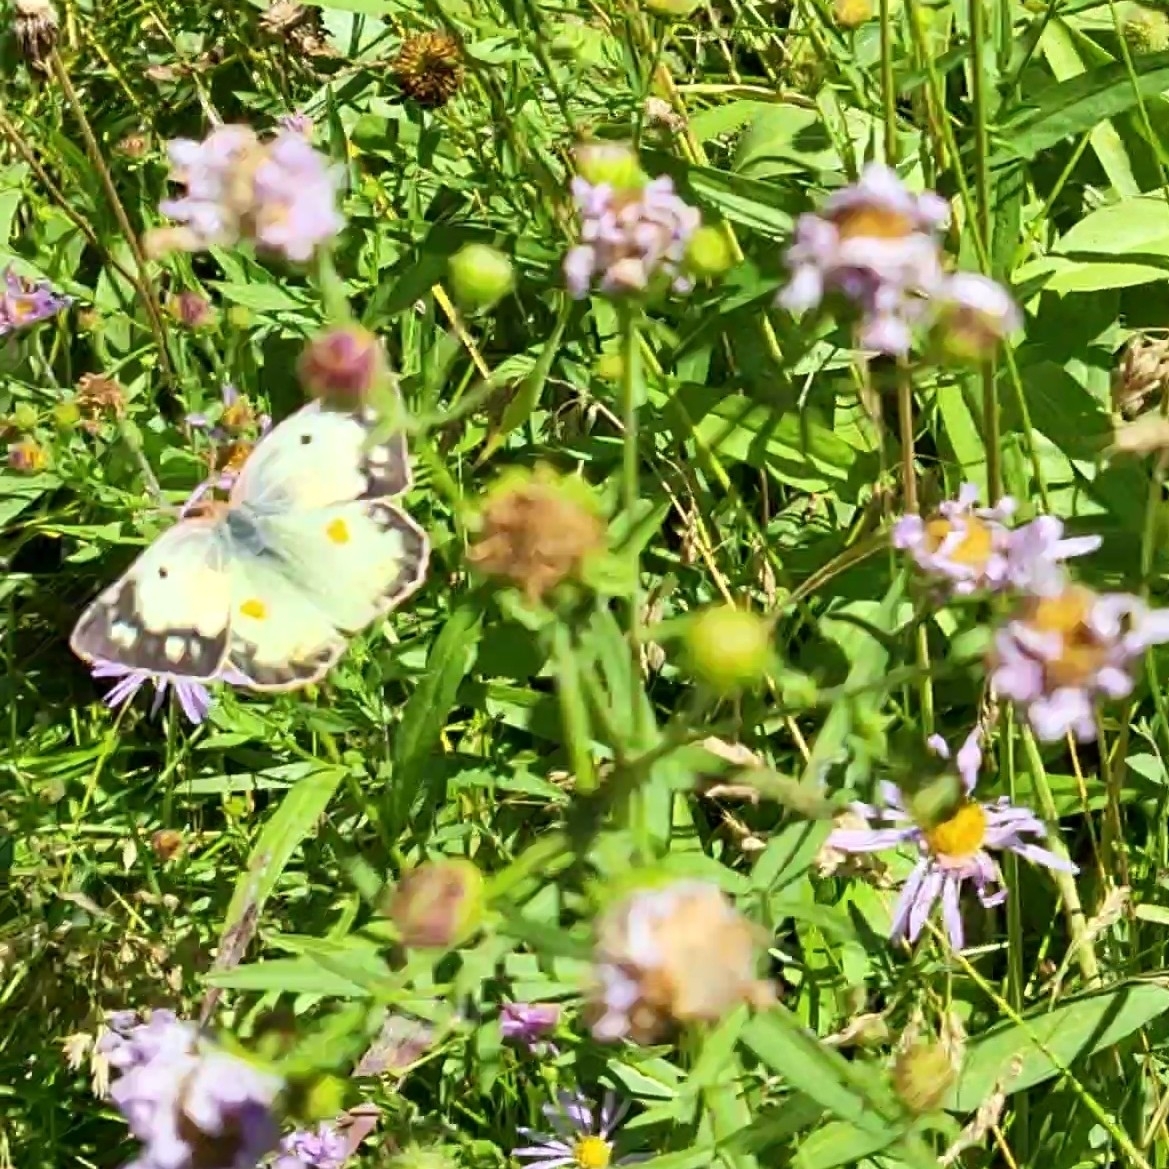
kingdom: Animalia
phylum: Arthropoda
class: Insecta
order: Lepidoptera
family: Pieridae
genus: Colias
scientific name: Colias eurytheme
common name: Alfalfa butterfly
